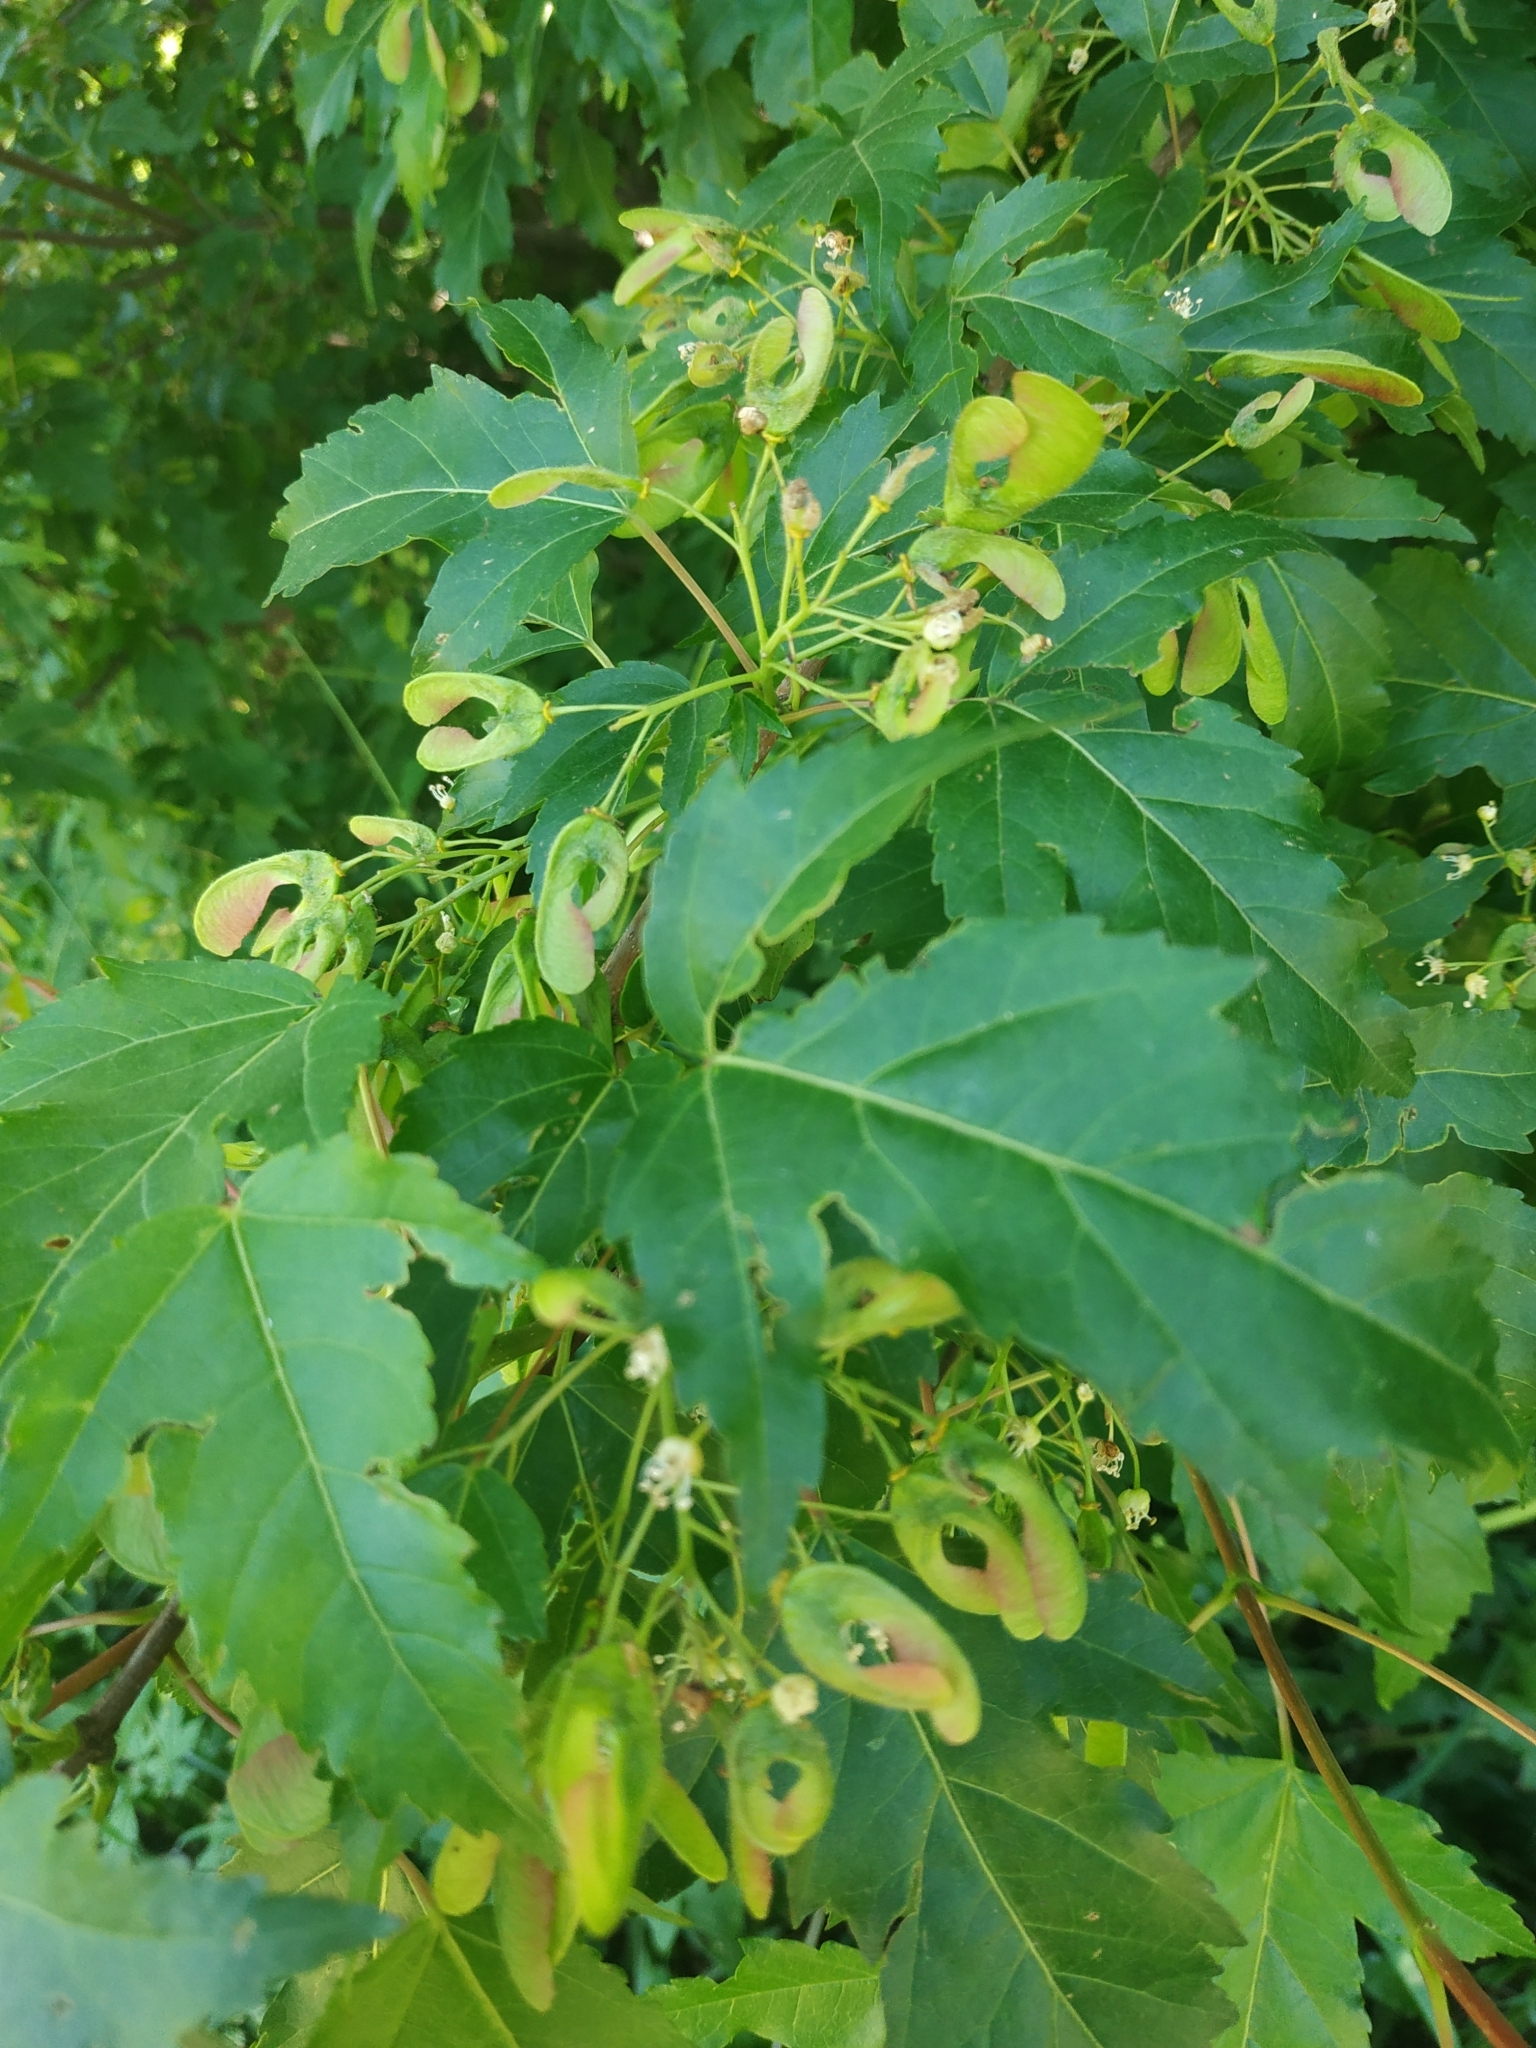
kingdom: Plantae
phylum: Tracheophyta
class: Magnoliopsida
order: Sapindales
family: Sapindaceae
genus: Acer
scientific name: Acer tataricum
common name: Tartar maple
